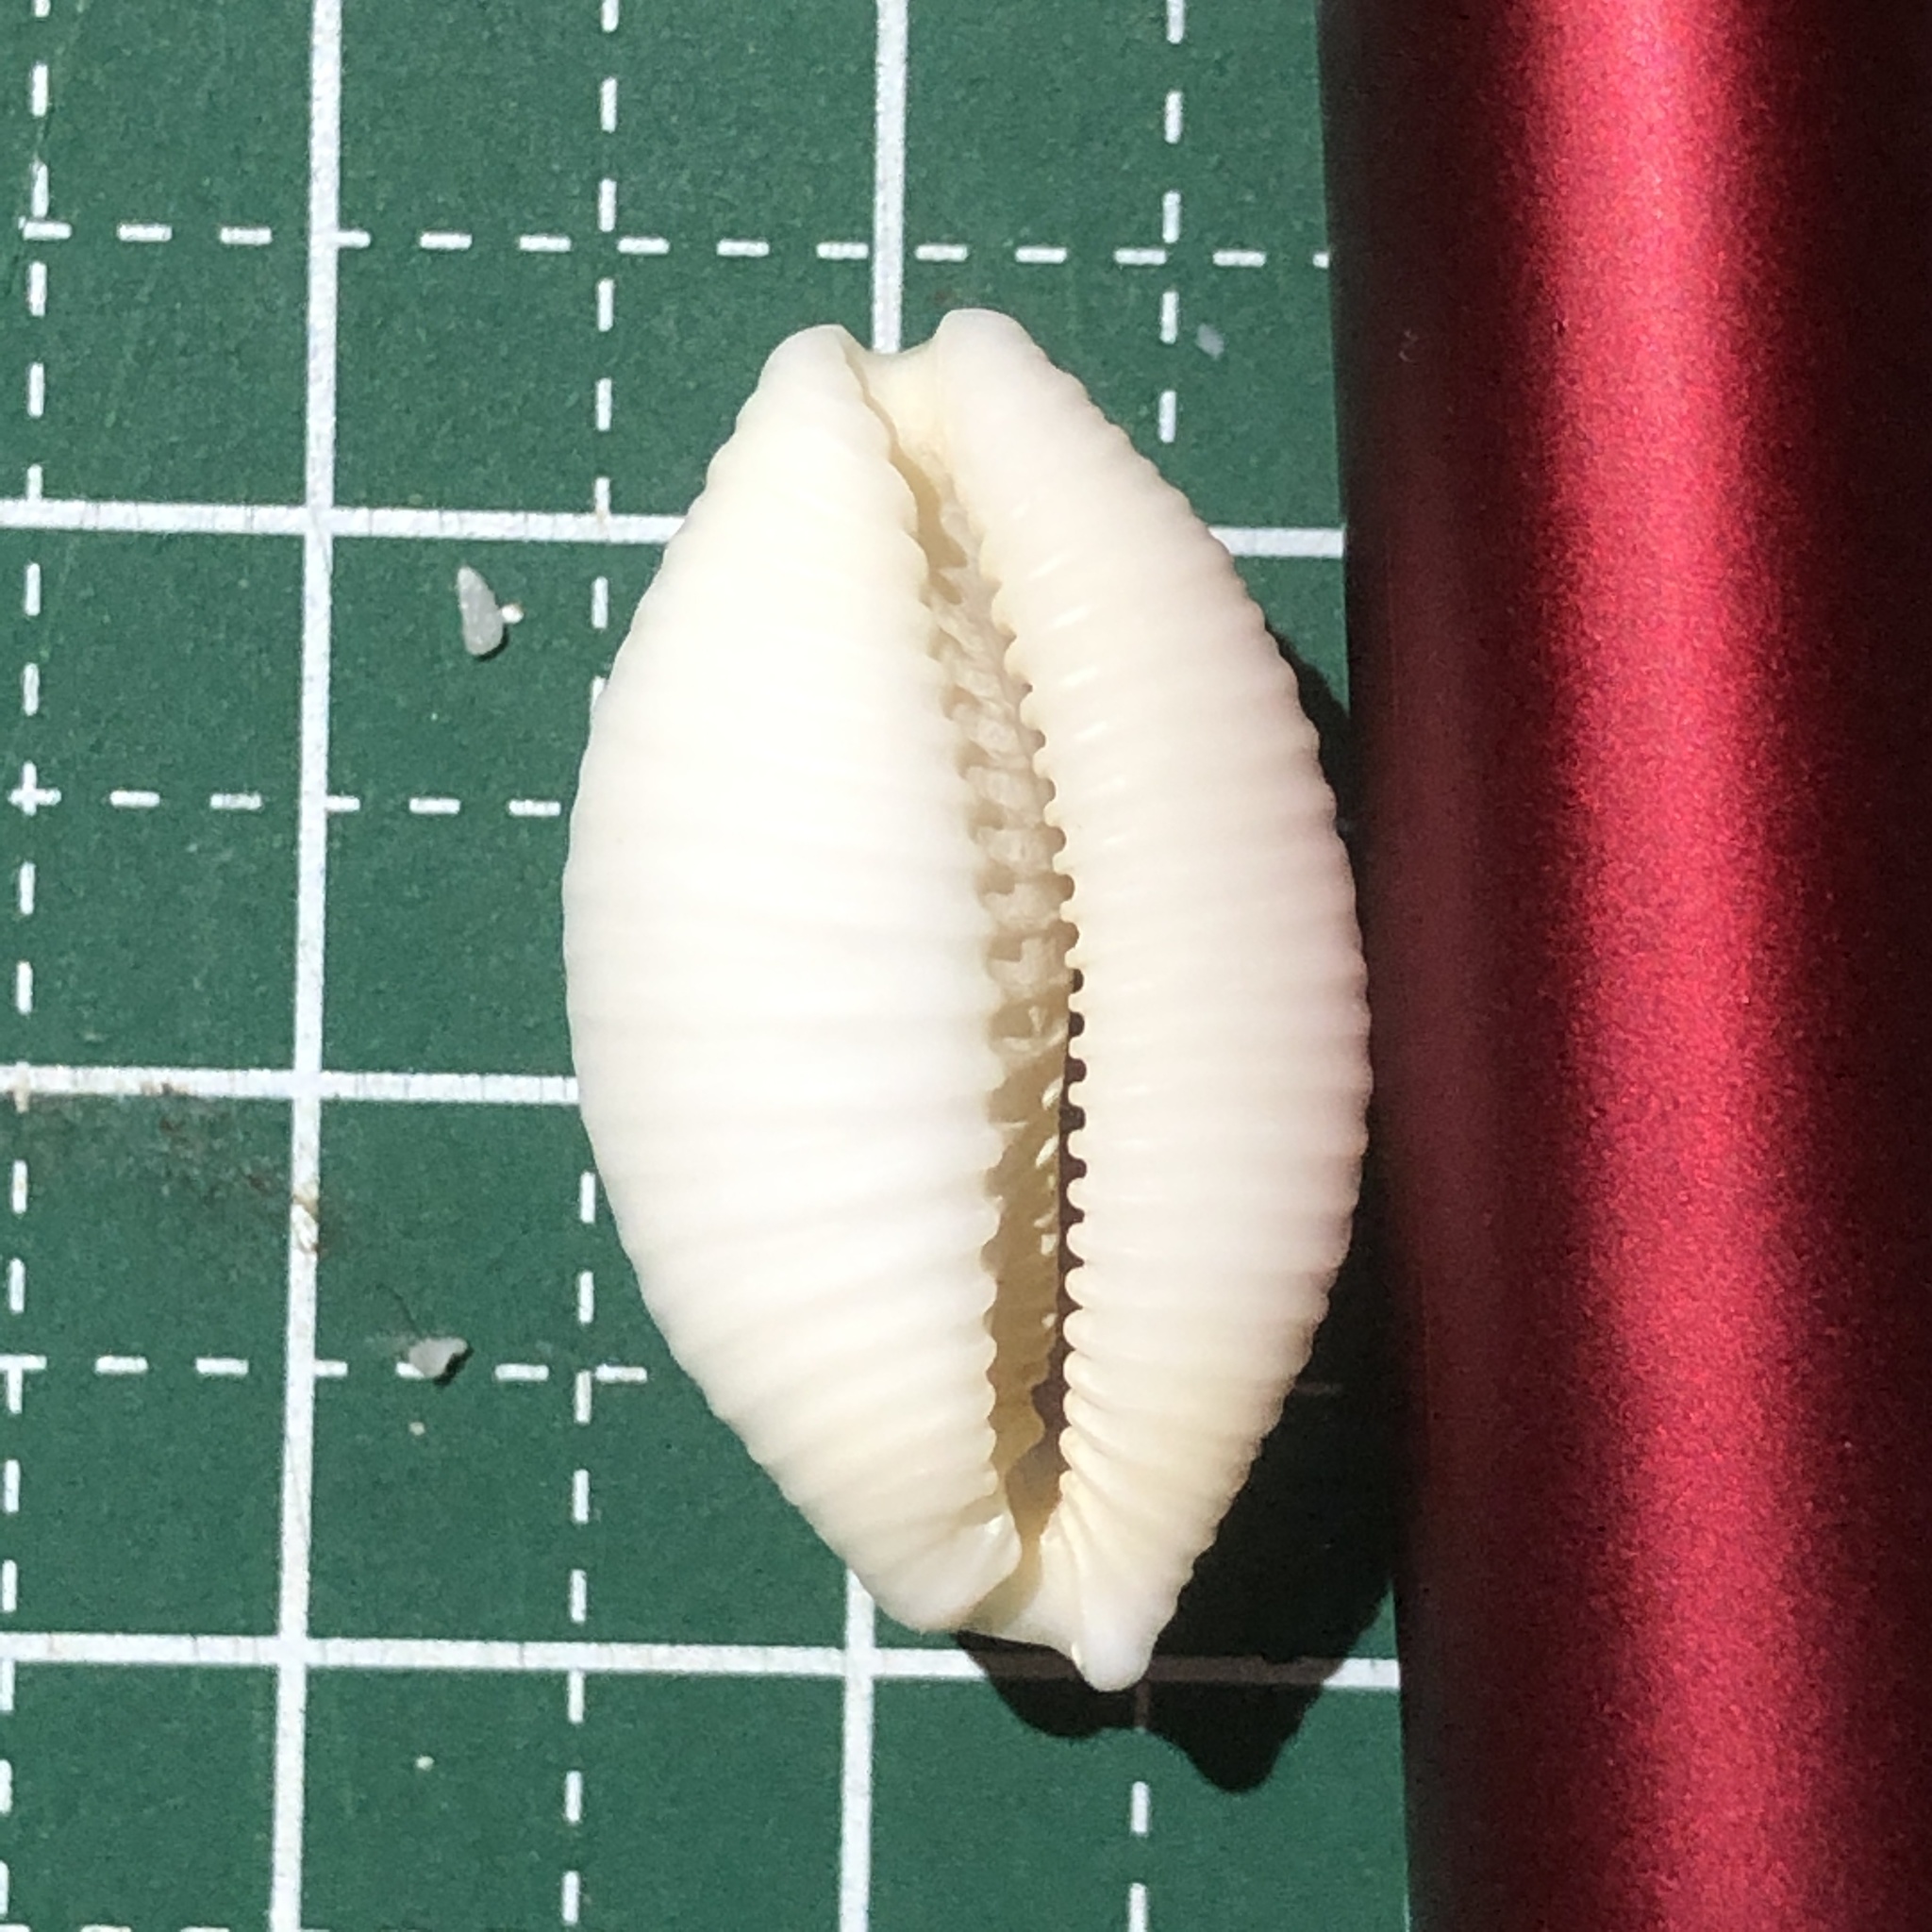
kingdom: Animalia
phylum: Mollusca
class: Gastropoda
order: Littorinimorpha
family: Cypraeidae
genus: Nucleolaria
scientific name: Nucleolaria nucleus
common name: Kernel cowry
